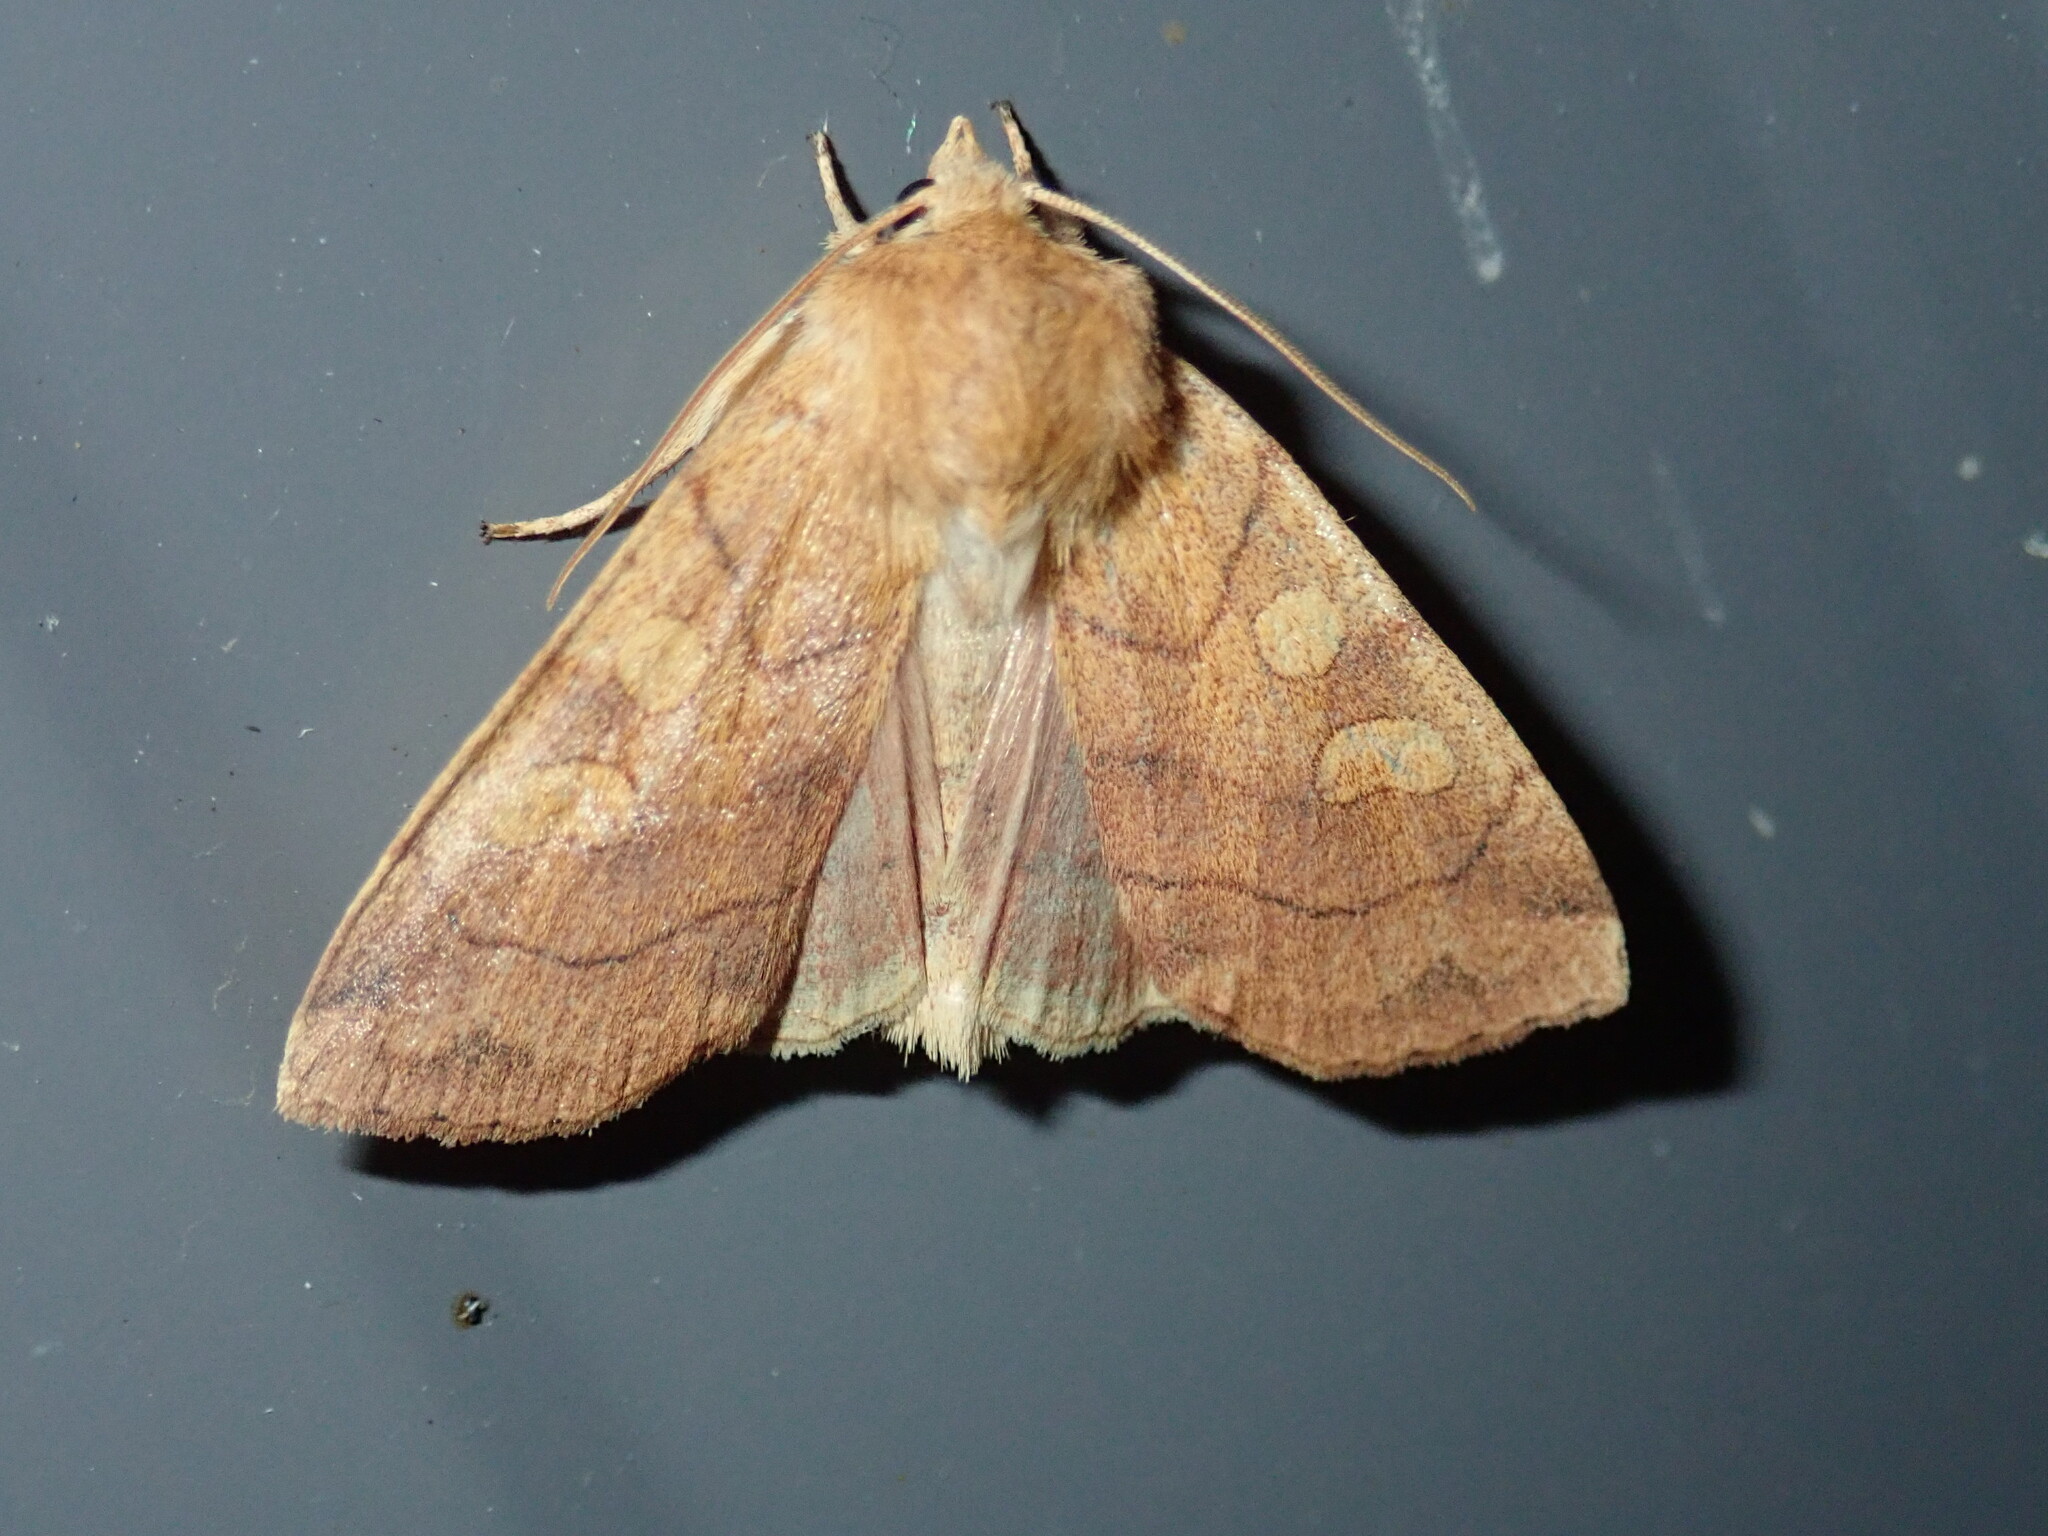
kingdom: Animalia
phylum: Arthropoda
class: Insecta
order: Lepidoptera
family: Noctuidae
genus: Enargia
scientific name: Enargia decolor
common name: Aspen twoleaf tier moth
